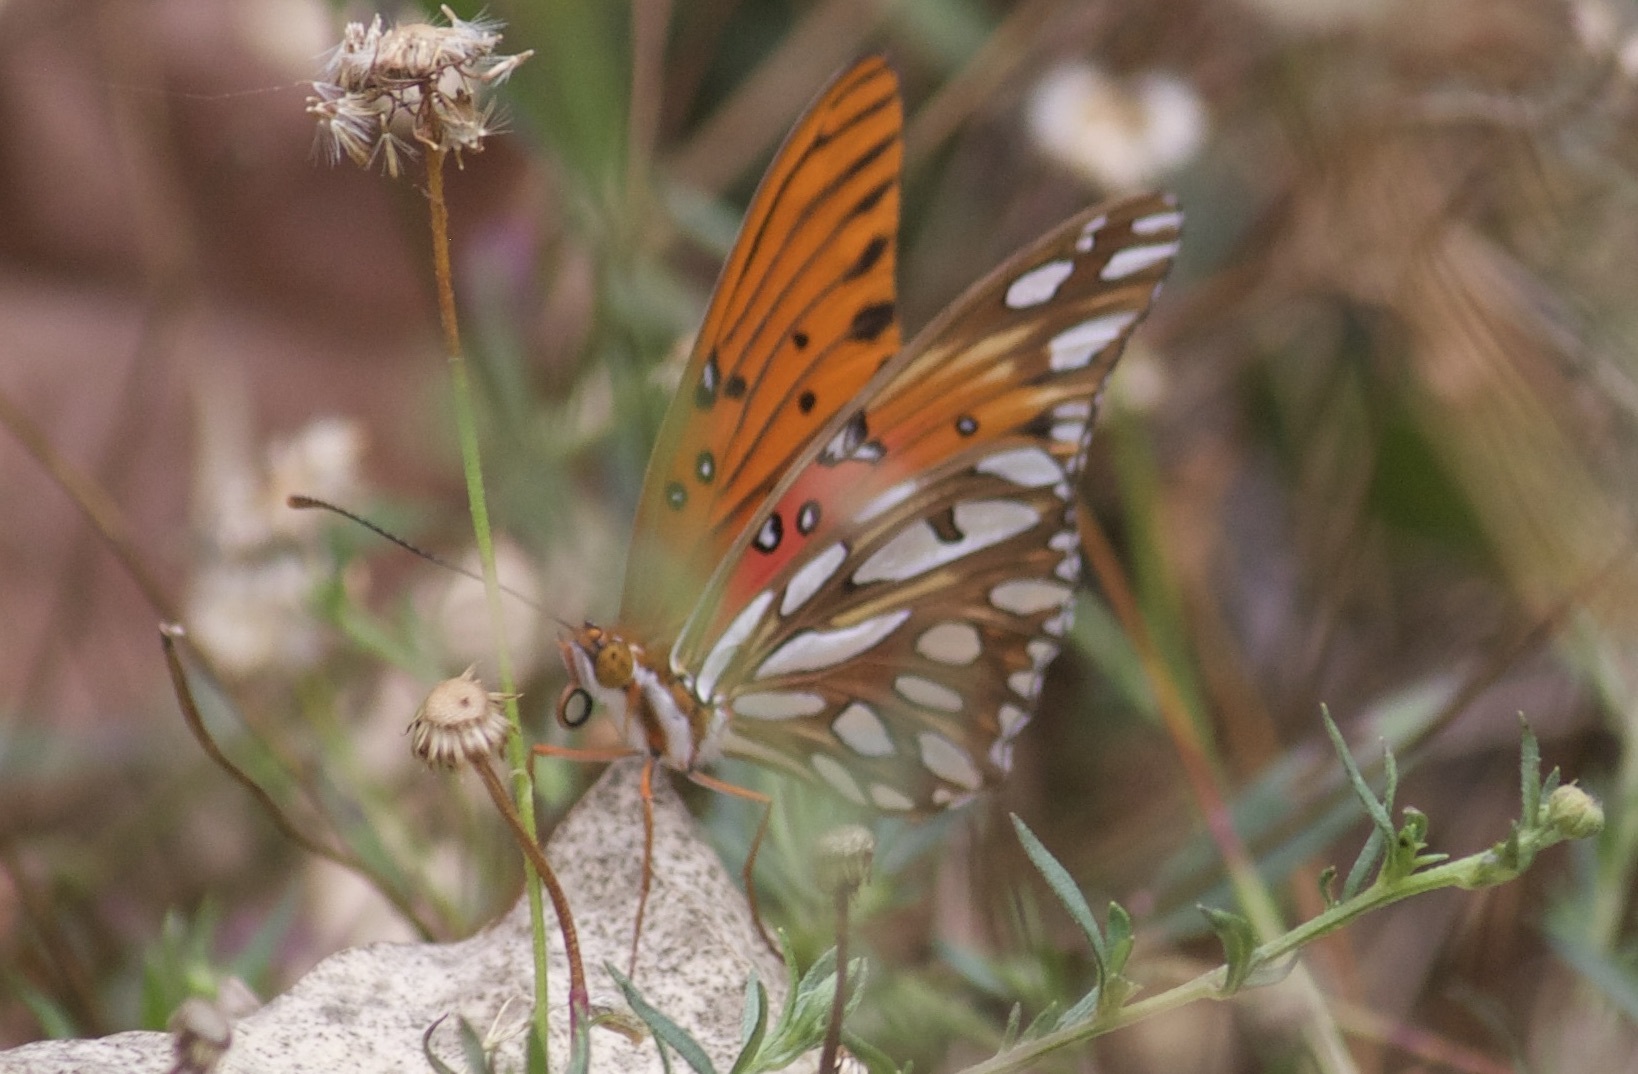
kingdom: Animalia
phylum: Arthropoda
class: Insecta
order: Lepidoptera
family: Nymphalidae
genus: Dione
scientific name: Dione vanillae
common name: Gulf fritillary
